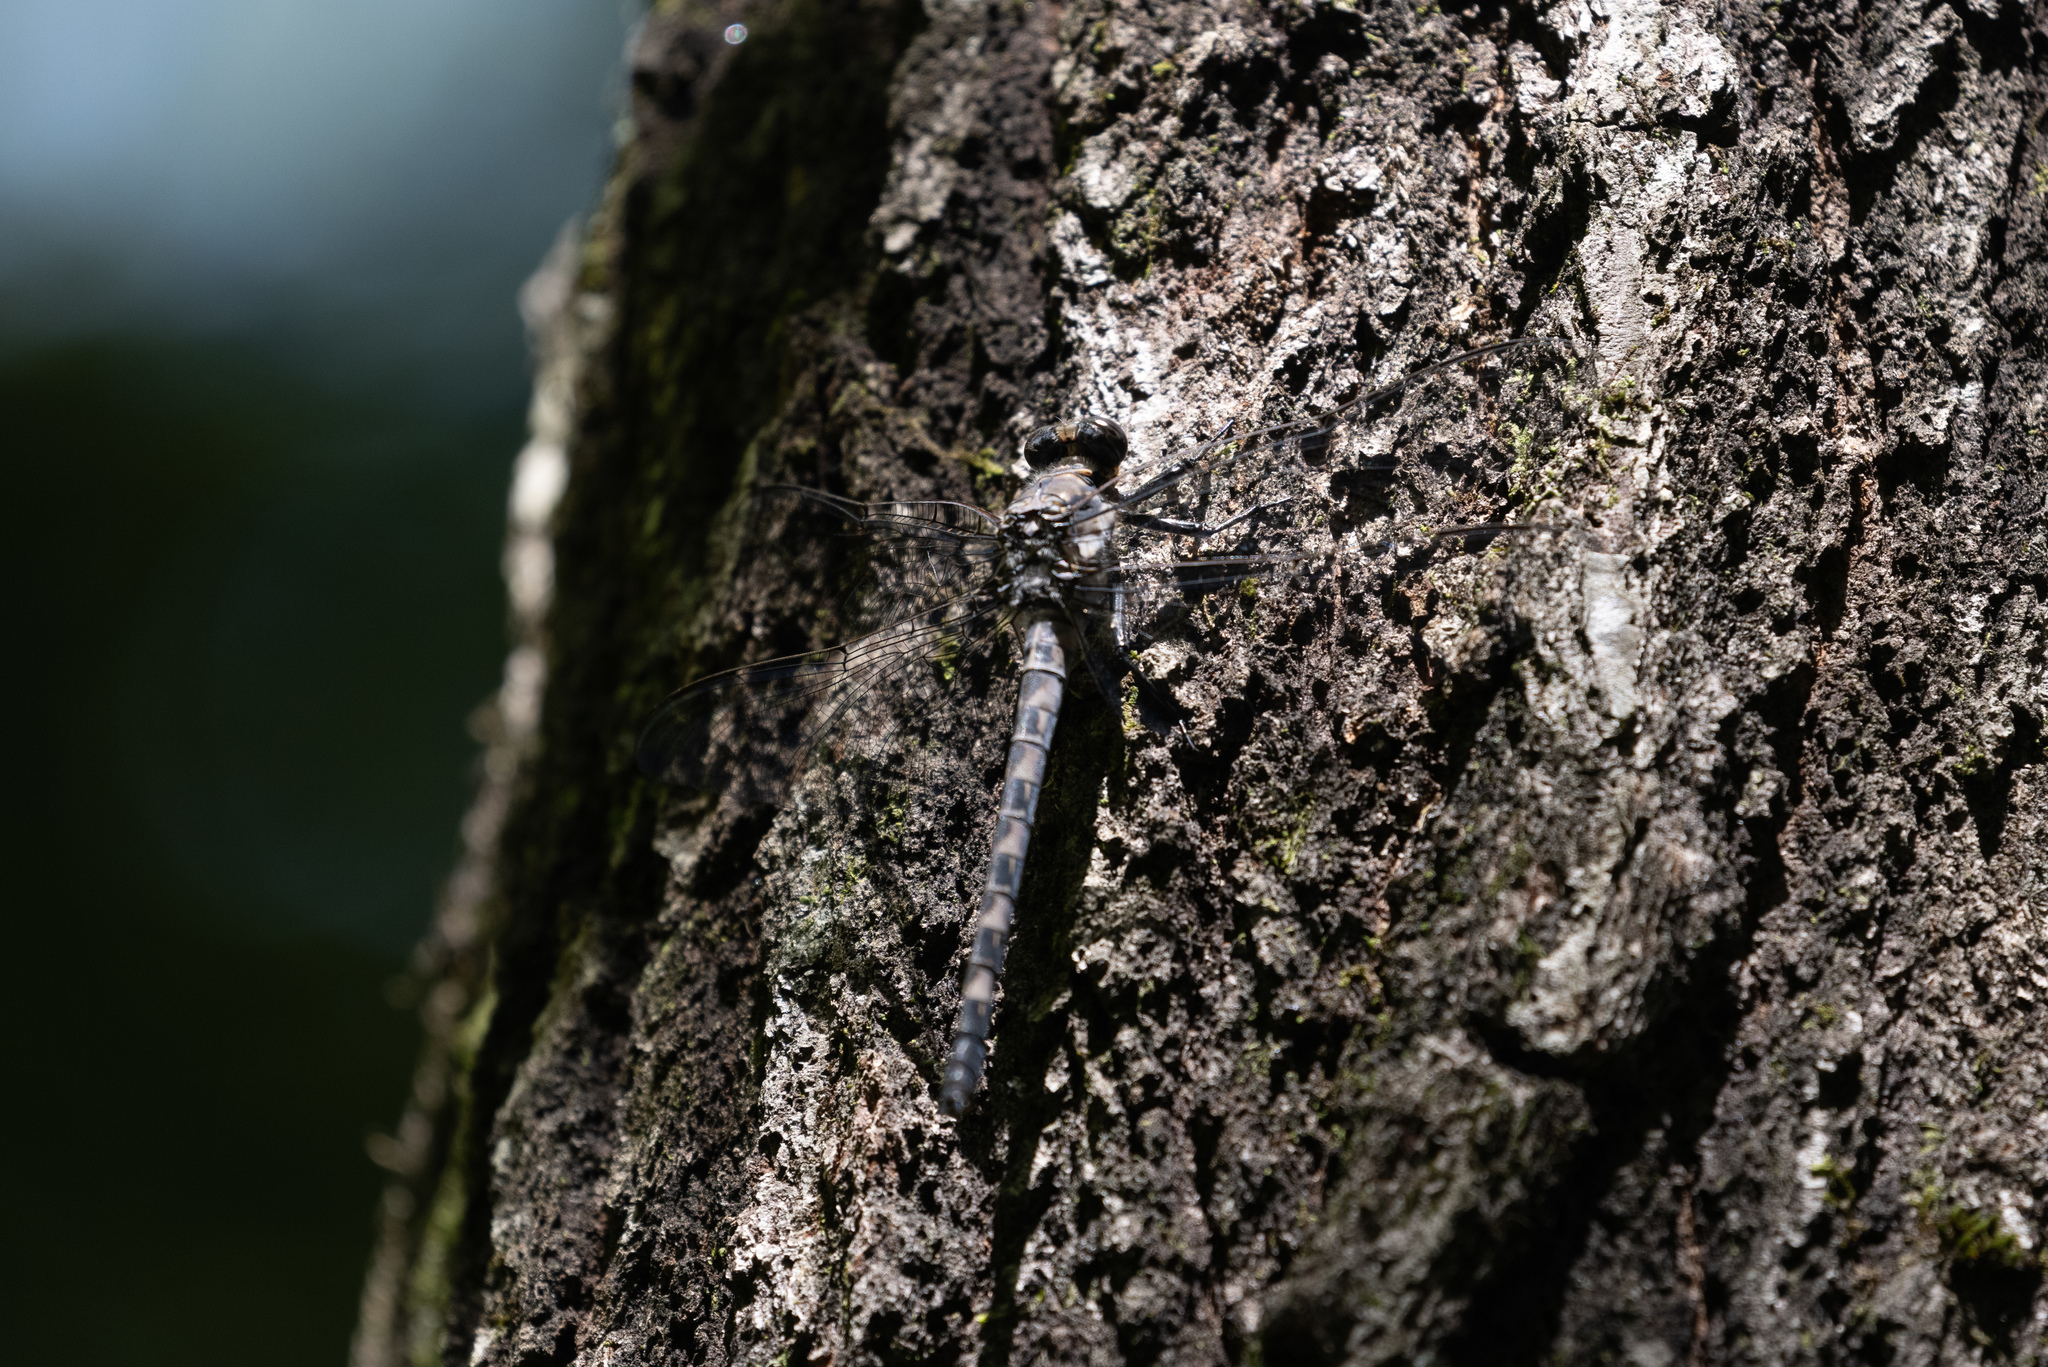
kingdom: Animalia
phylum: Arthropoda
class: Insecta
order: Odonata
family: Petaluridae
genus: Tachopteryx
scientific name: Tachopteryx thoreyi
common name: Gray petaltail
